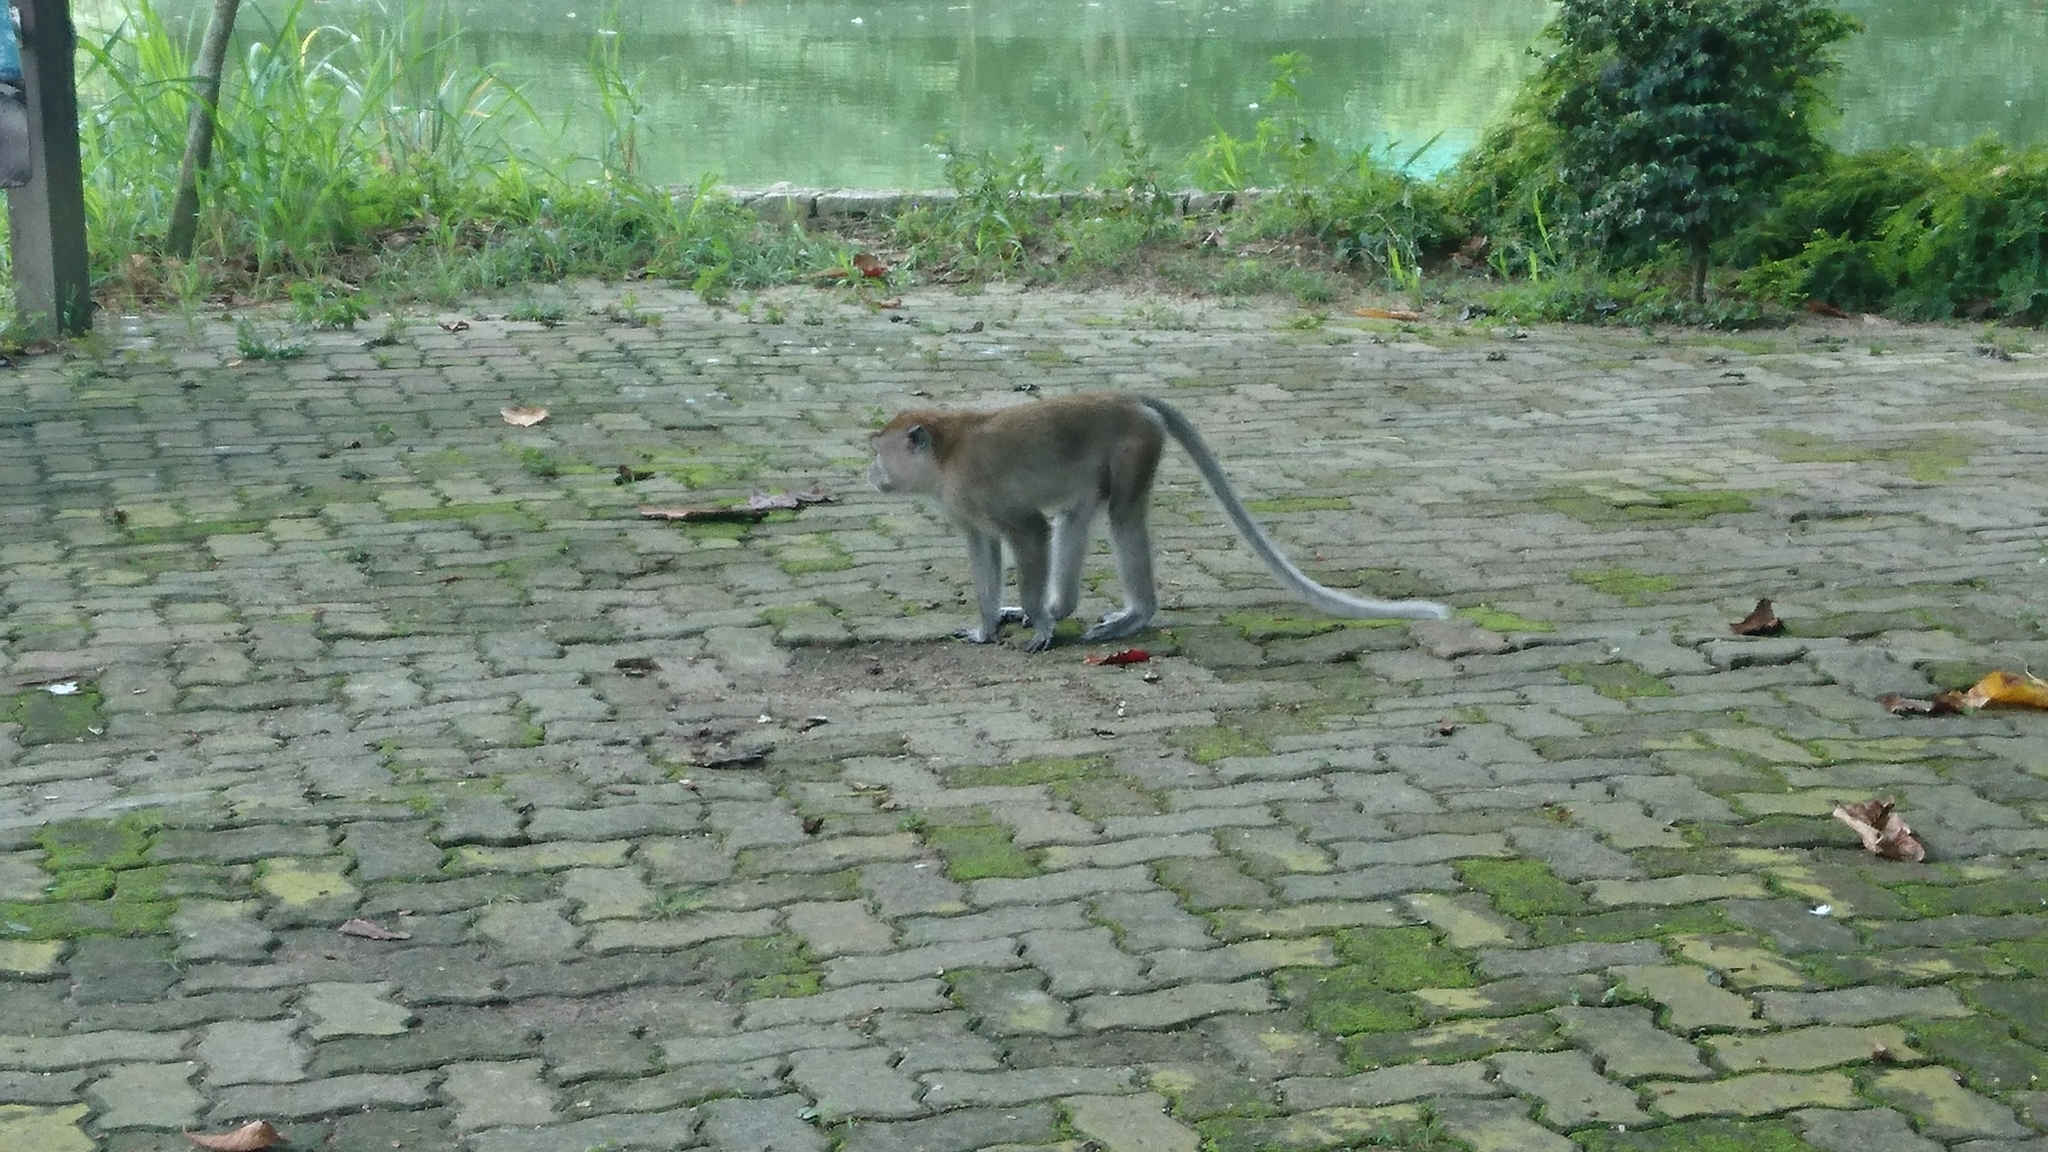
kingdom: Animalia
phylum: Chordata
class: Mammalia
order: Primates
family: Cercopithecidae
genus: Macaca
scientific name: Macaca fascicularis
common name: Crab-eating macaque
